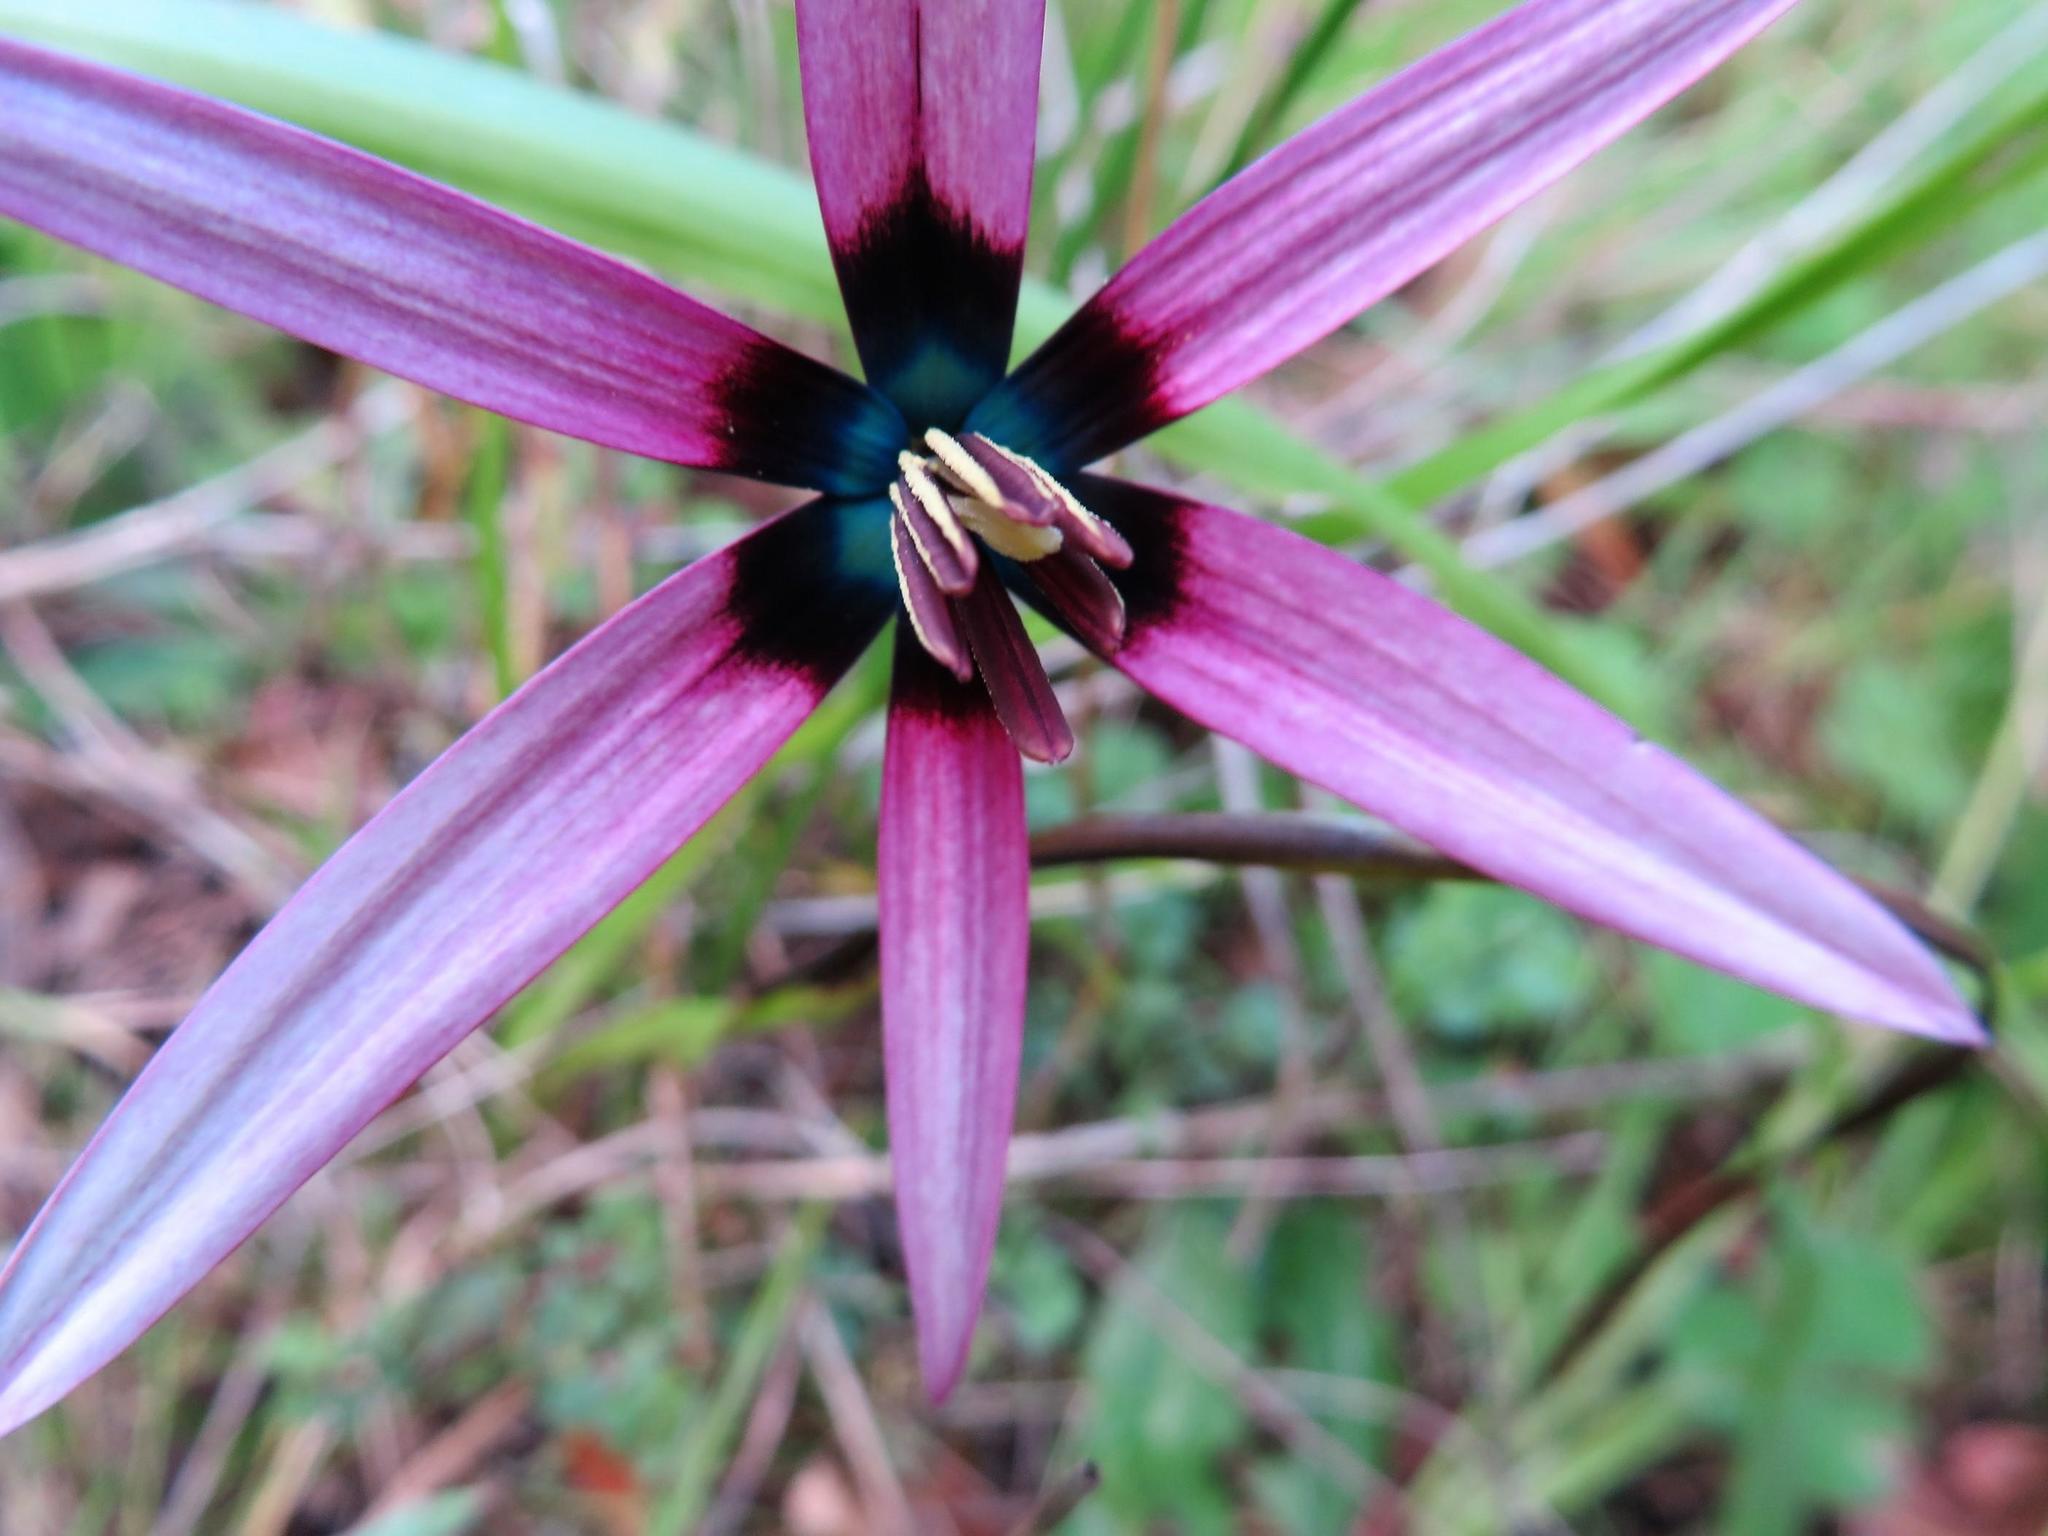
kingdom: Plantae
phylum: Tracheophyta
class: Liliopsida
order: Asparagales
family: Hypoxidaceae
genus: Pauridia
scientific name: Pauridia capensis
